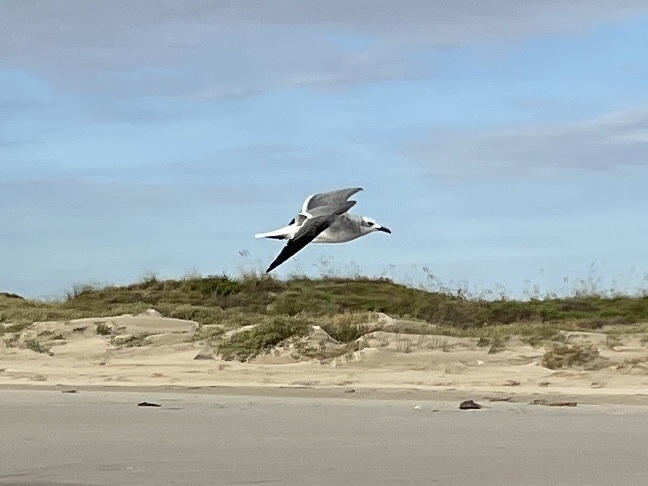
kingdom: Animalia
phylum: Chordata
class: Aves
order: Charadriiformes
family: Laridae
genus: Leucophaeus
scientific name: Leucophaeus atricilla
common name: Laughing gull
